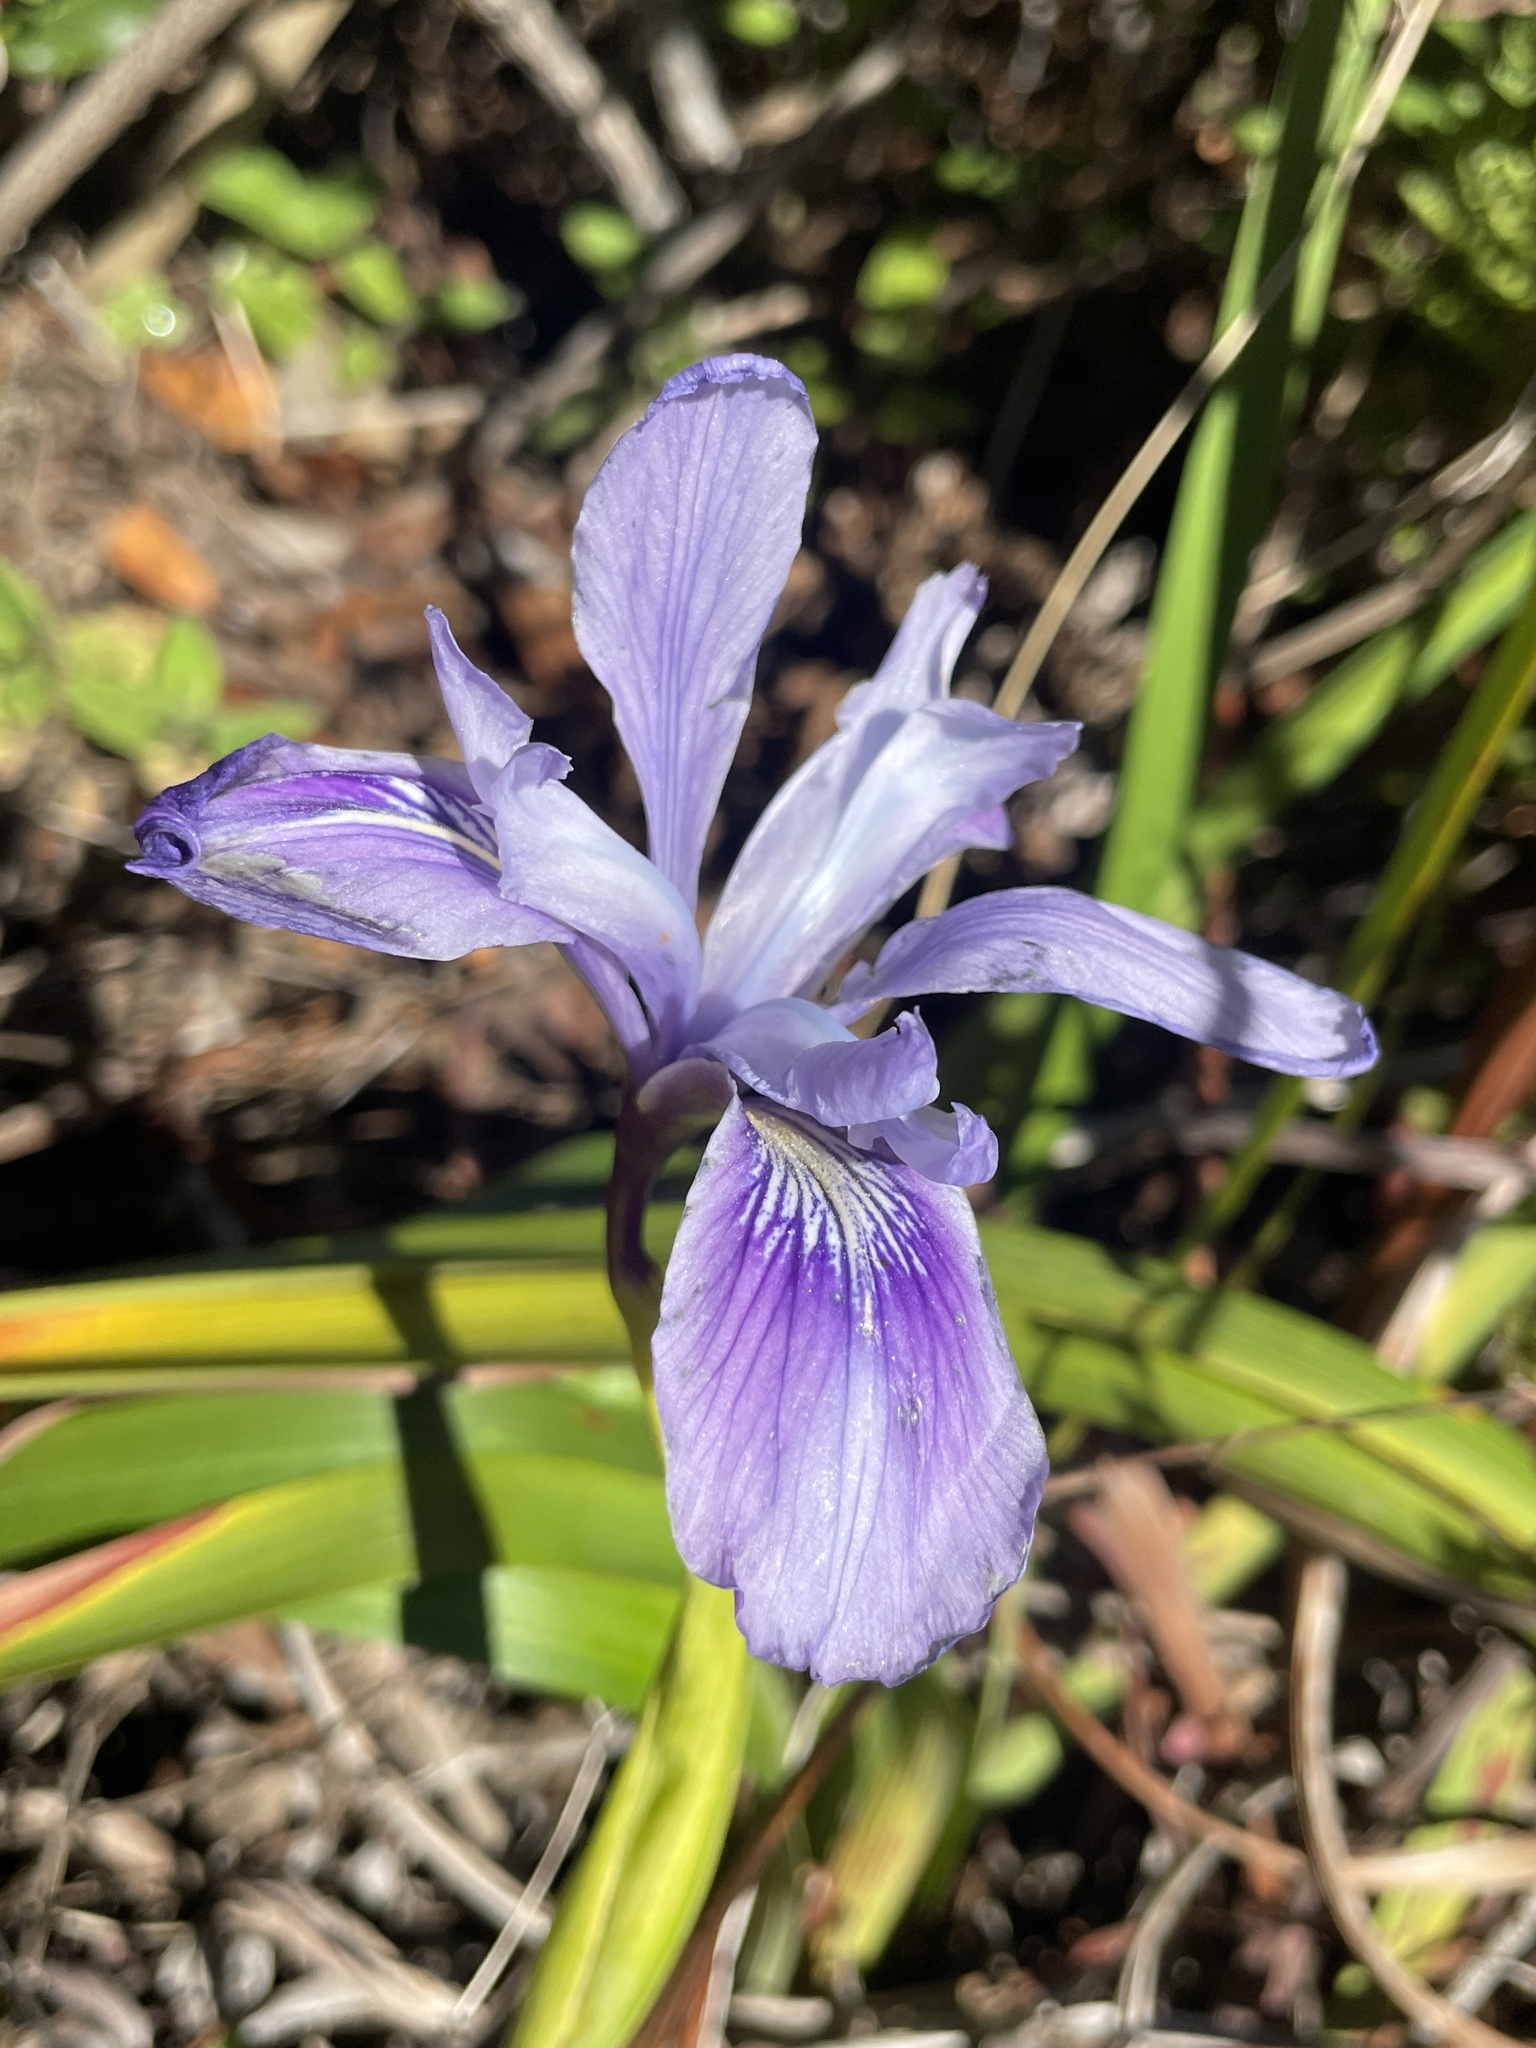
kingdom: Plantae
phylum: Tracheophyta
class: Liliopsida
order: Asparagales
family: Iridaceae
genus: Iris
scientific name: Iris douglasiana
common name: Marin iris
